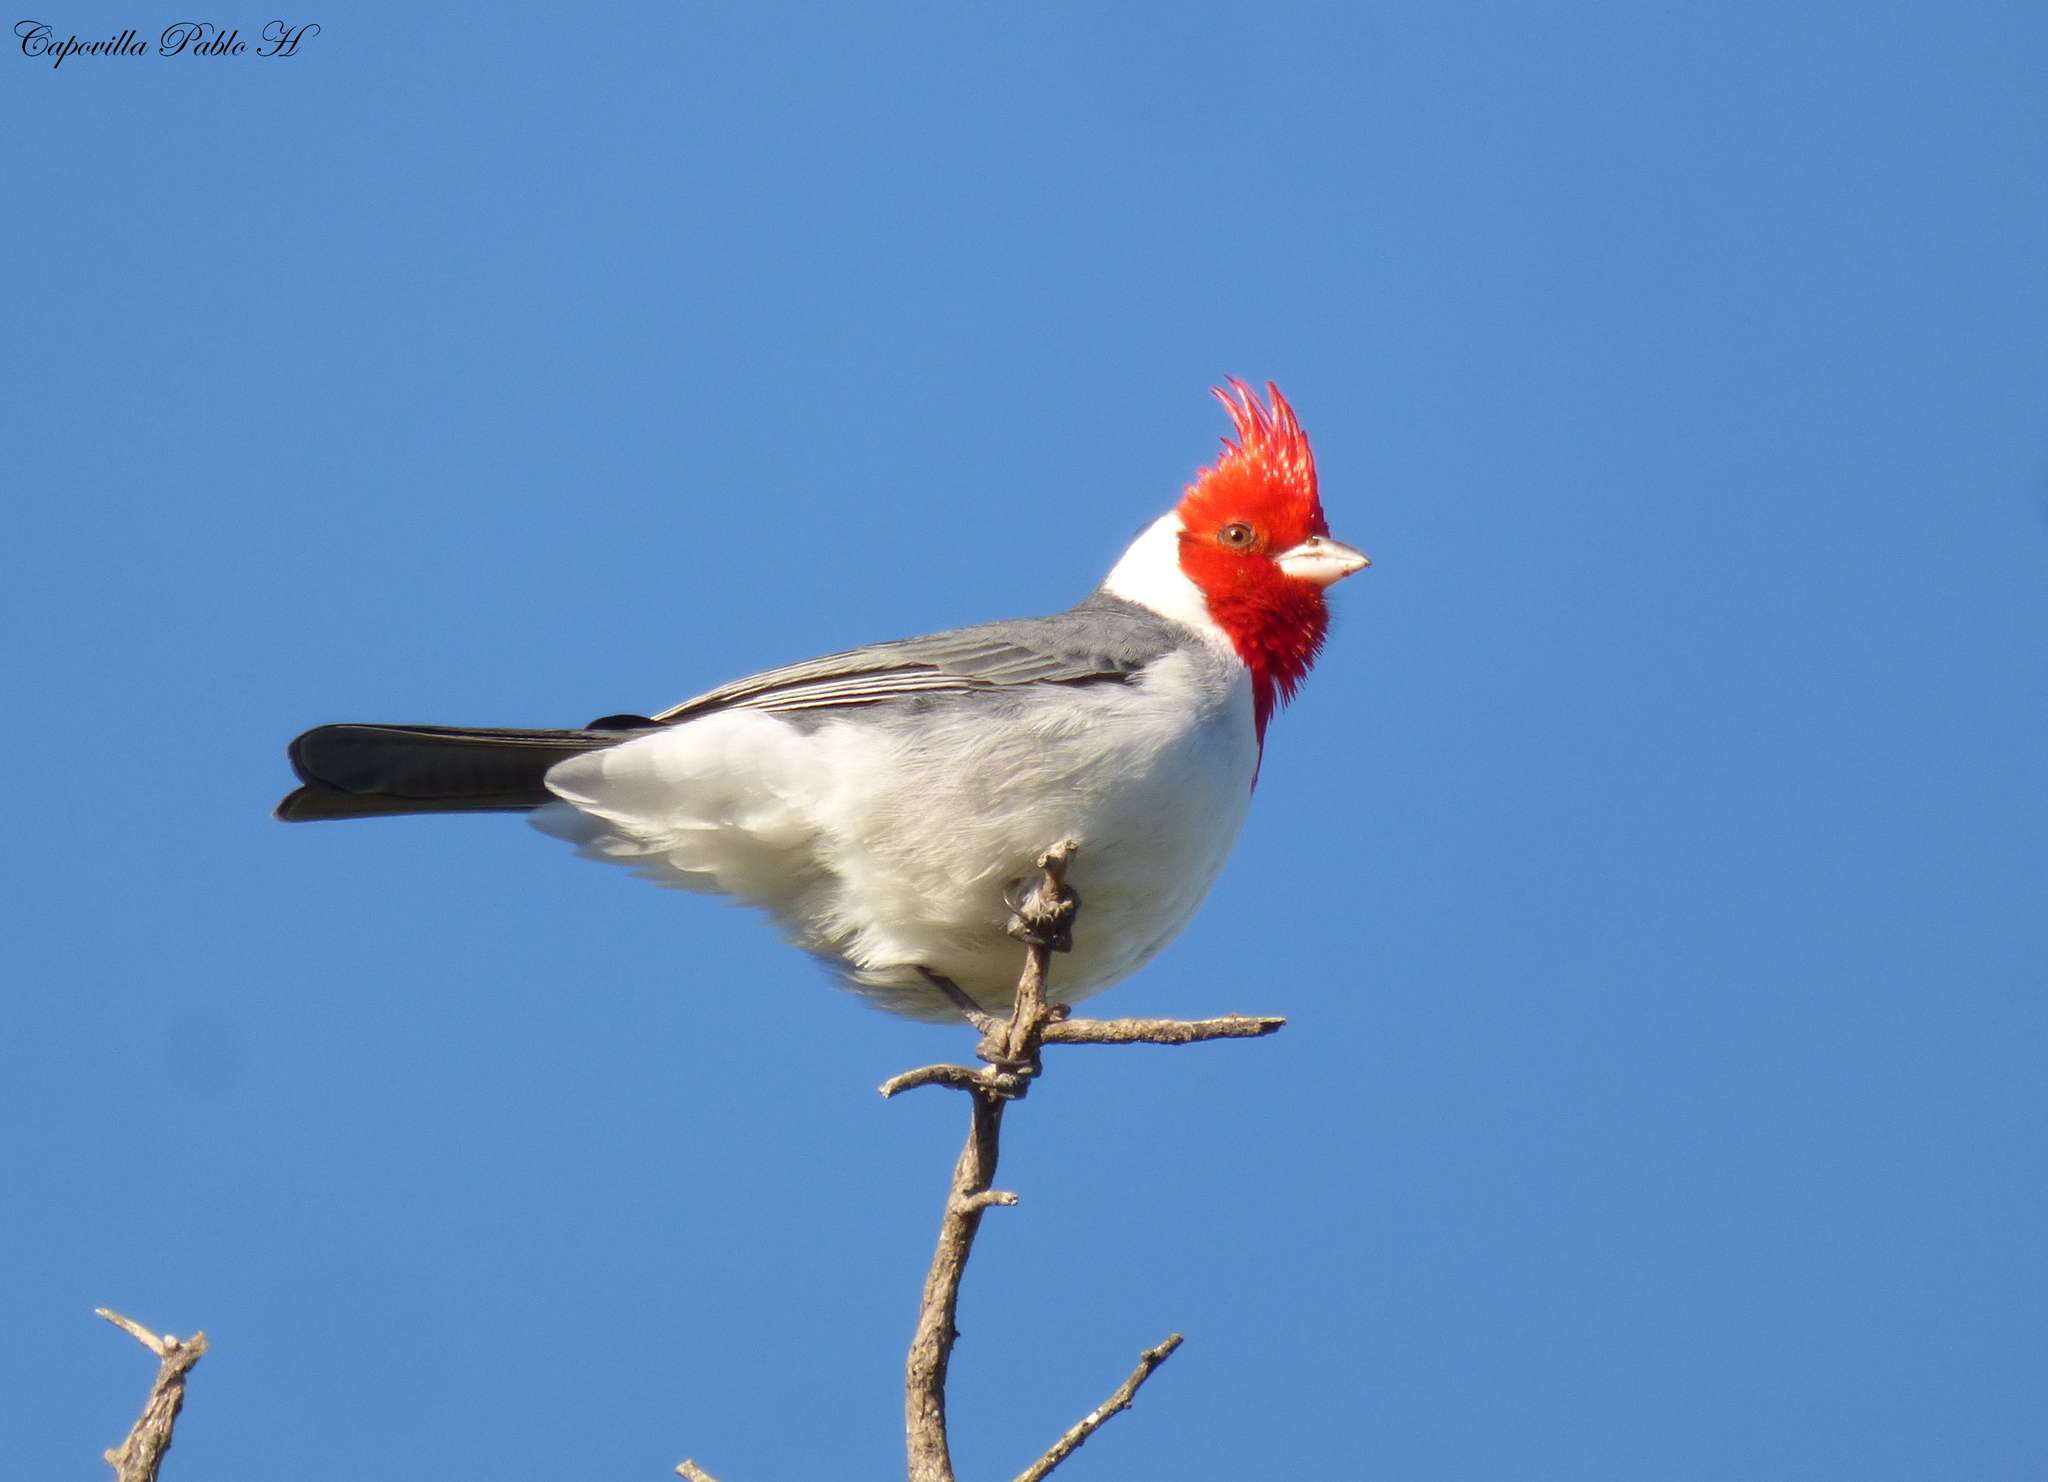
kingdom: Animalia
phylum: Chordata
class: Aves
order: Passeriformes
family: Thraupidae
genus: Paroaria
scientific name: Paroaria coronata
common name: Red-crested cardinal
